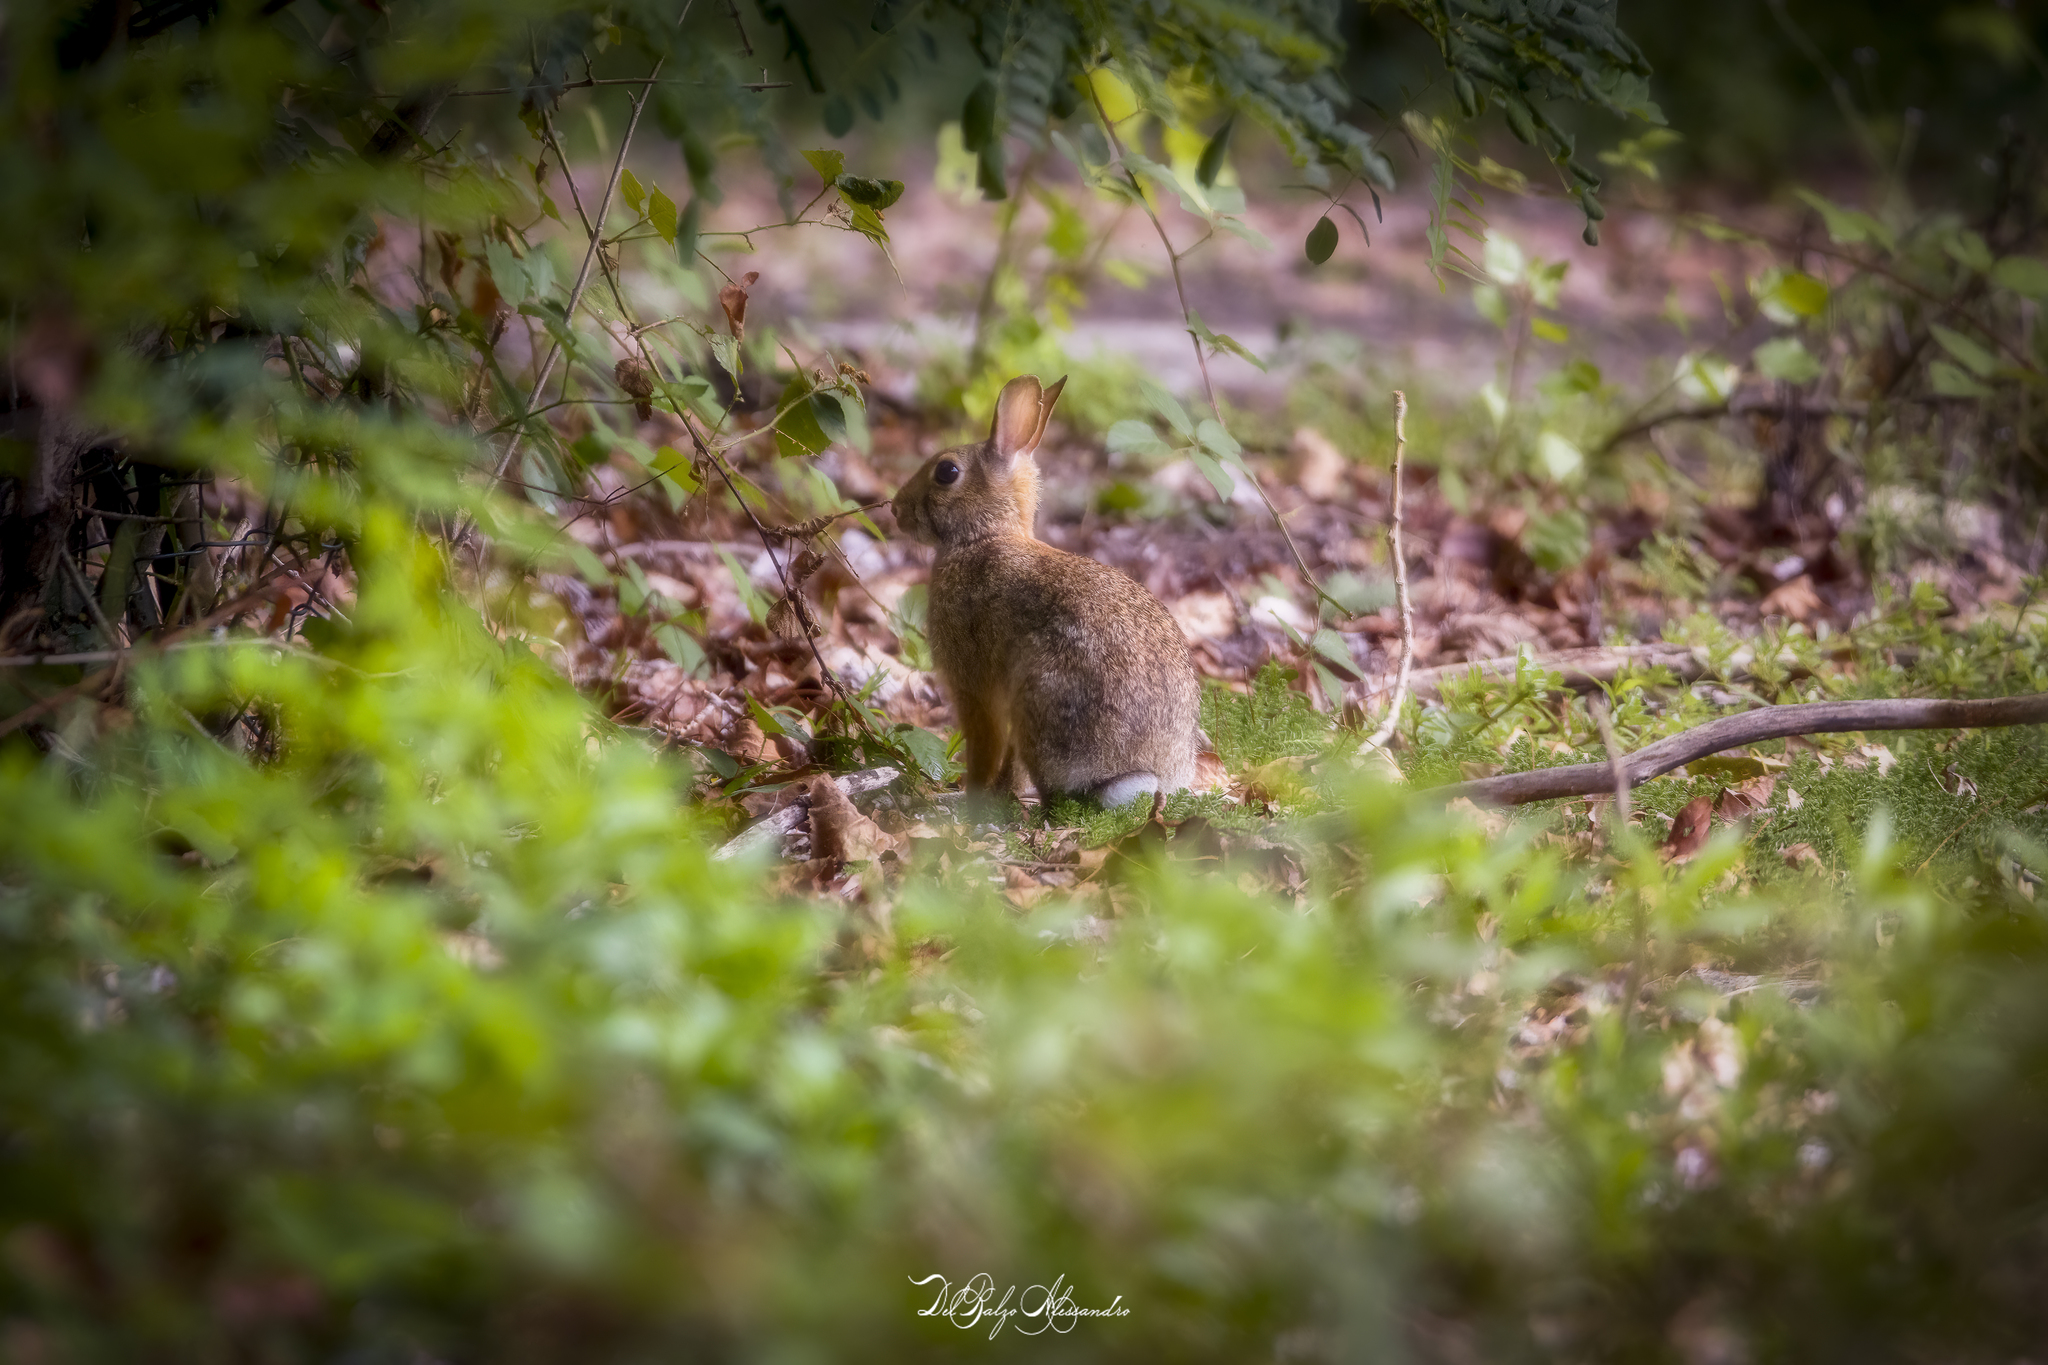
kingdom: Animalia
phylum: Chordata
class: Mammalia
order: Lagomorpha
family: Leporidae
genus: Sylvilagus
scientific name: Sylvilagus floridanus
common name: Eastern cottontail
